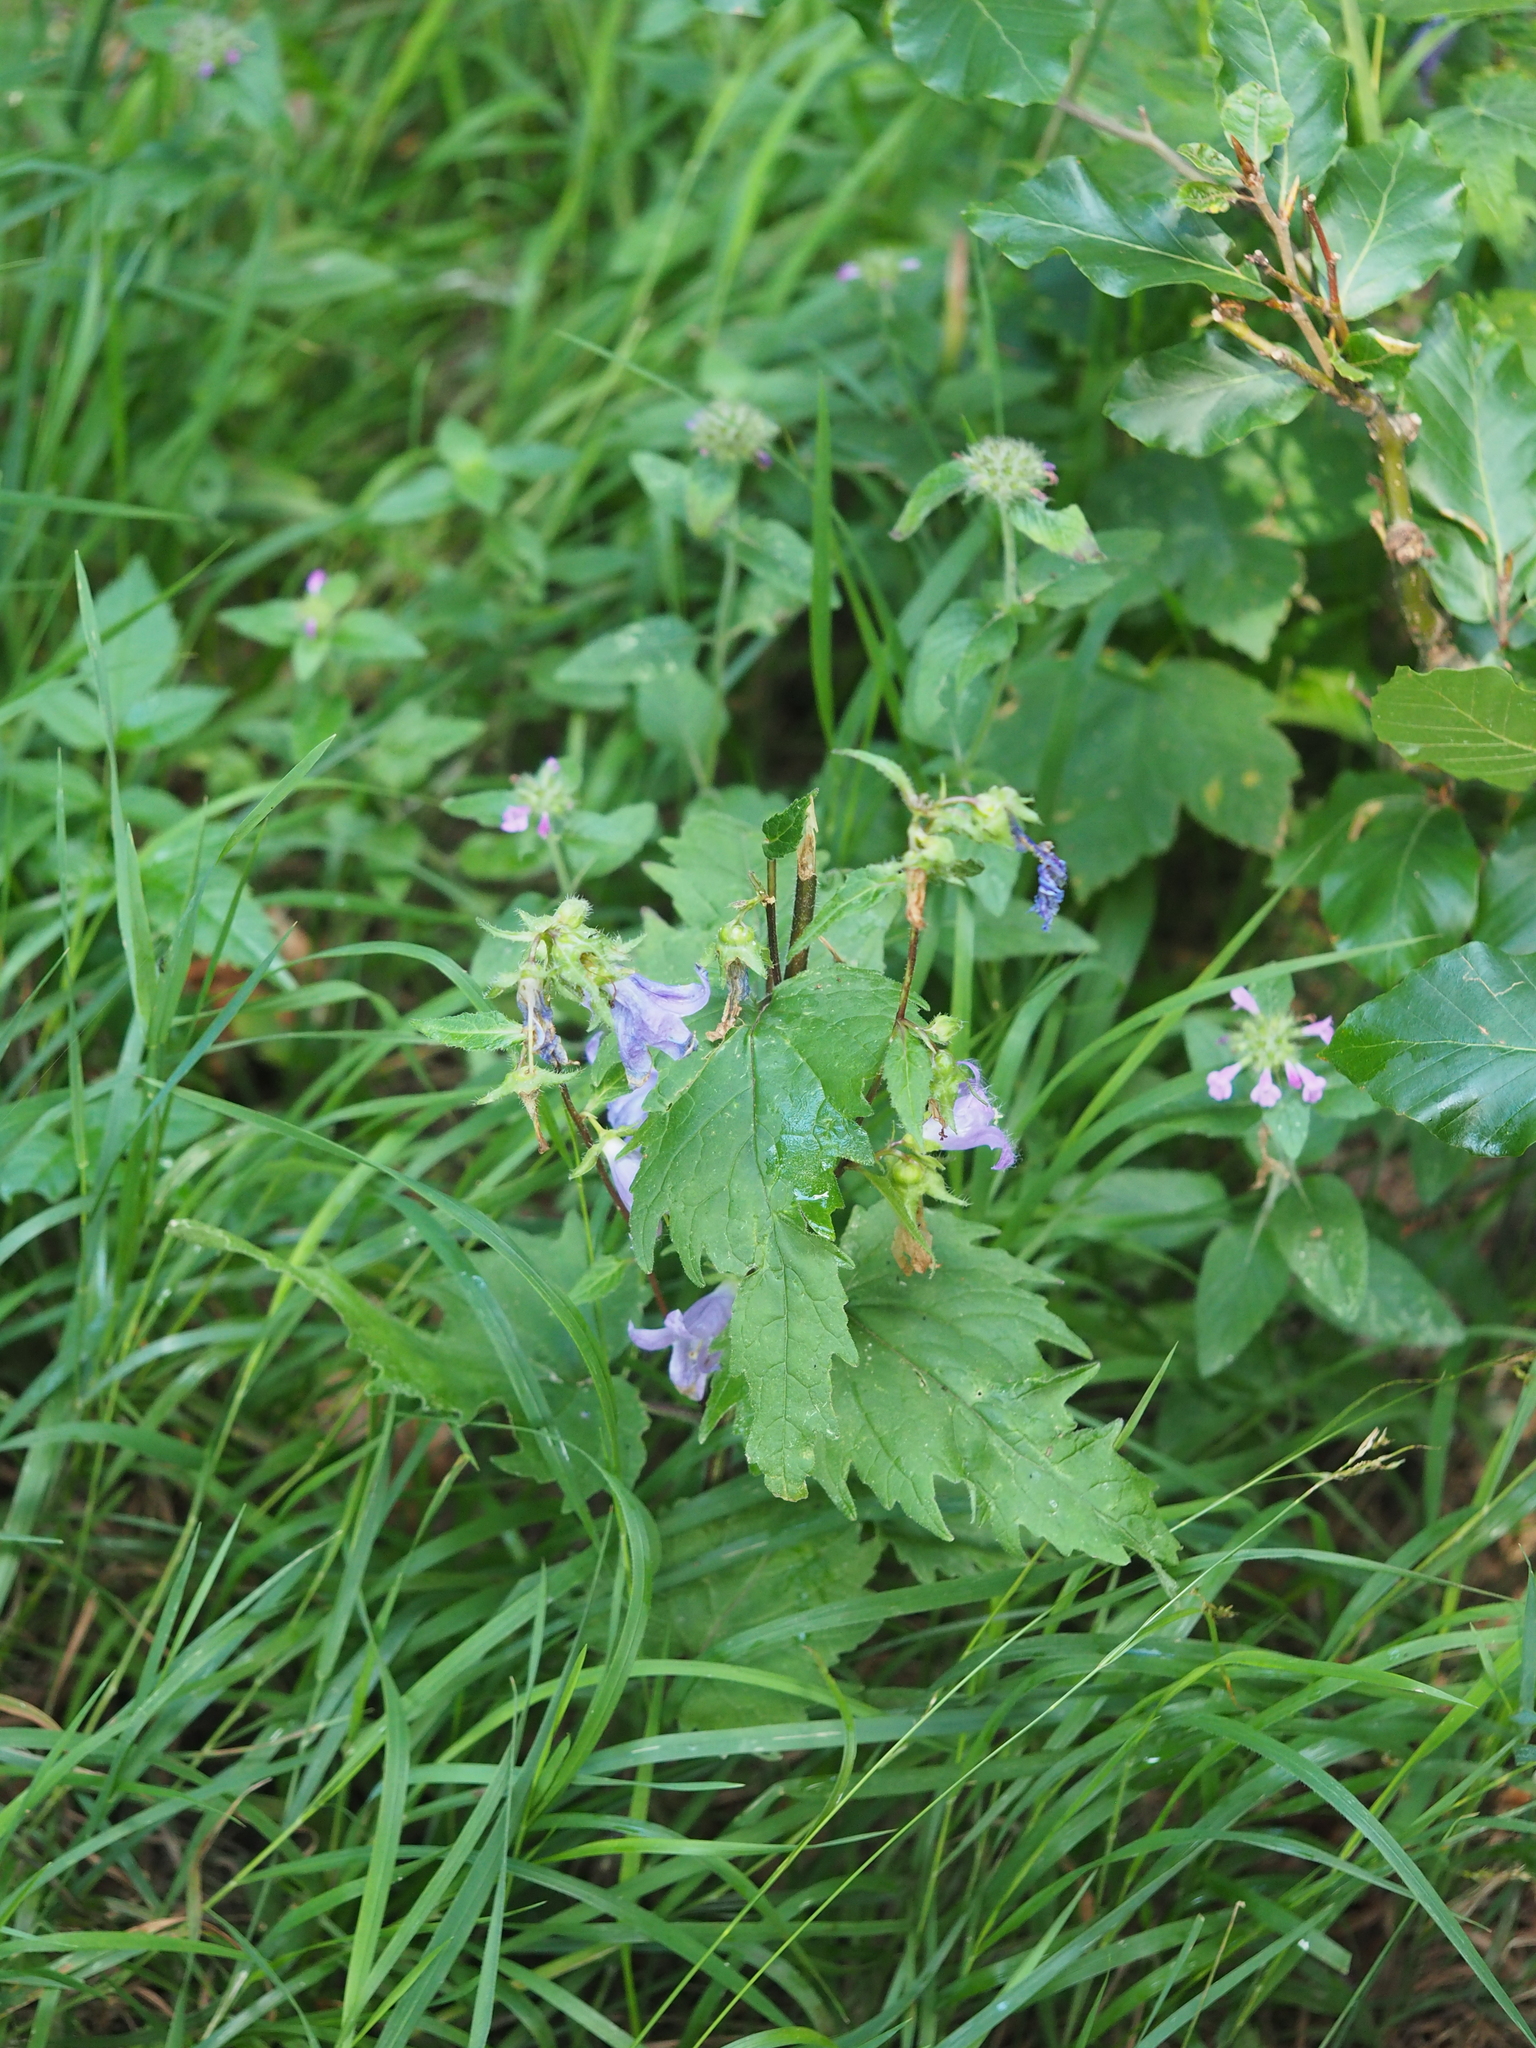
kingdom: Plantae
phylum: Tracheophyta
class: Magnoliopsida
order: Asterales
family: Campanulaceae
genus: Campanula
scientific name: Campanula trachelium
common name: Nettle-leaved bellflower
